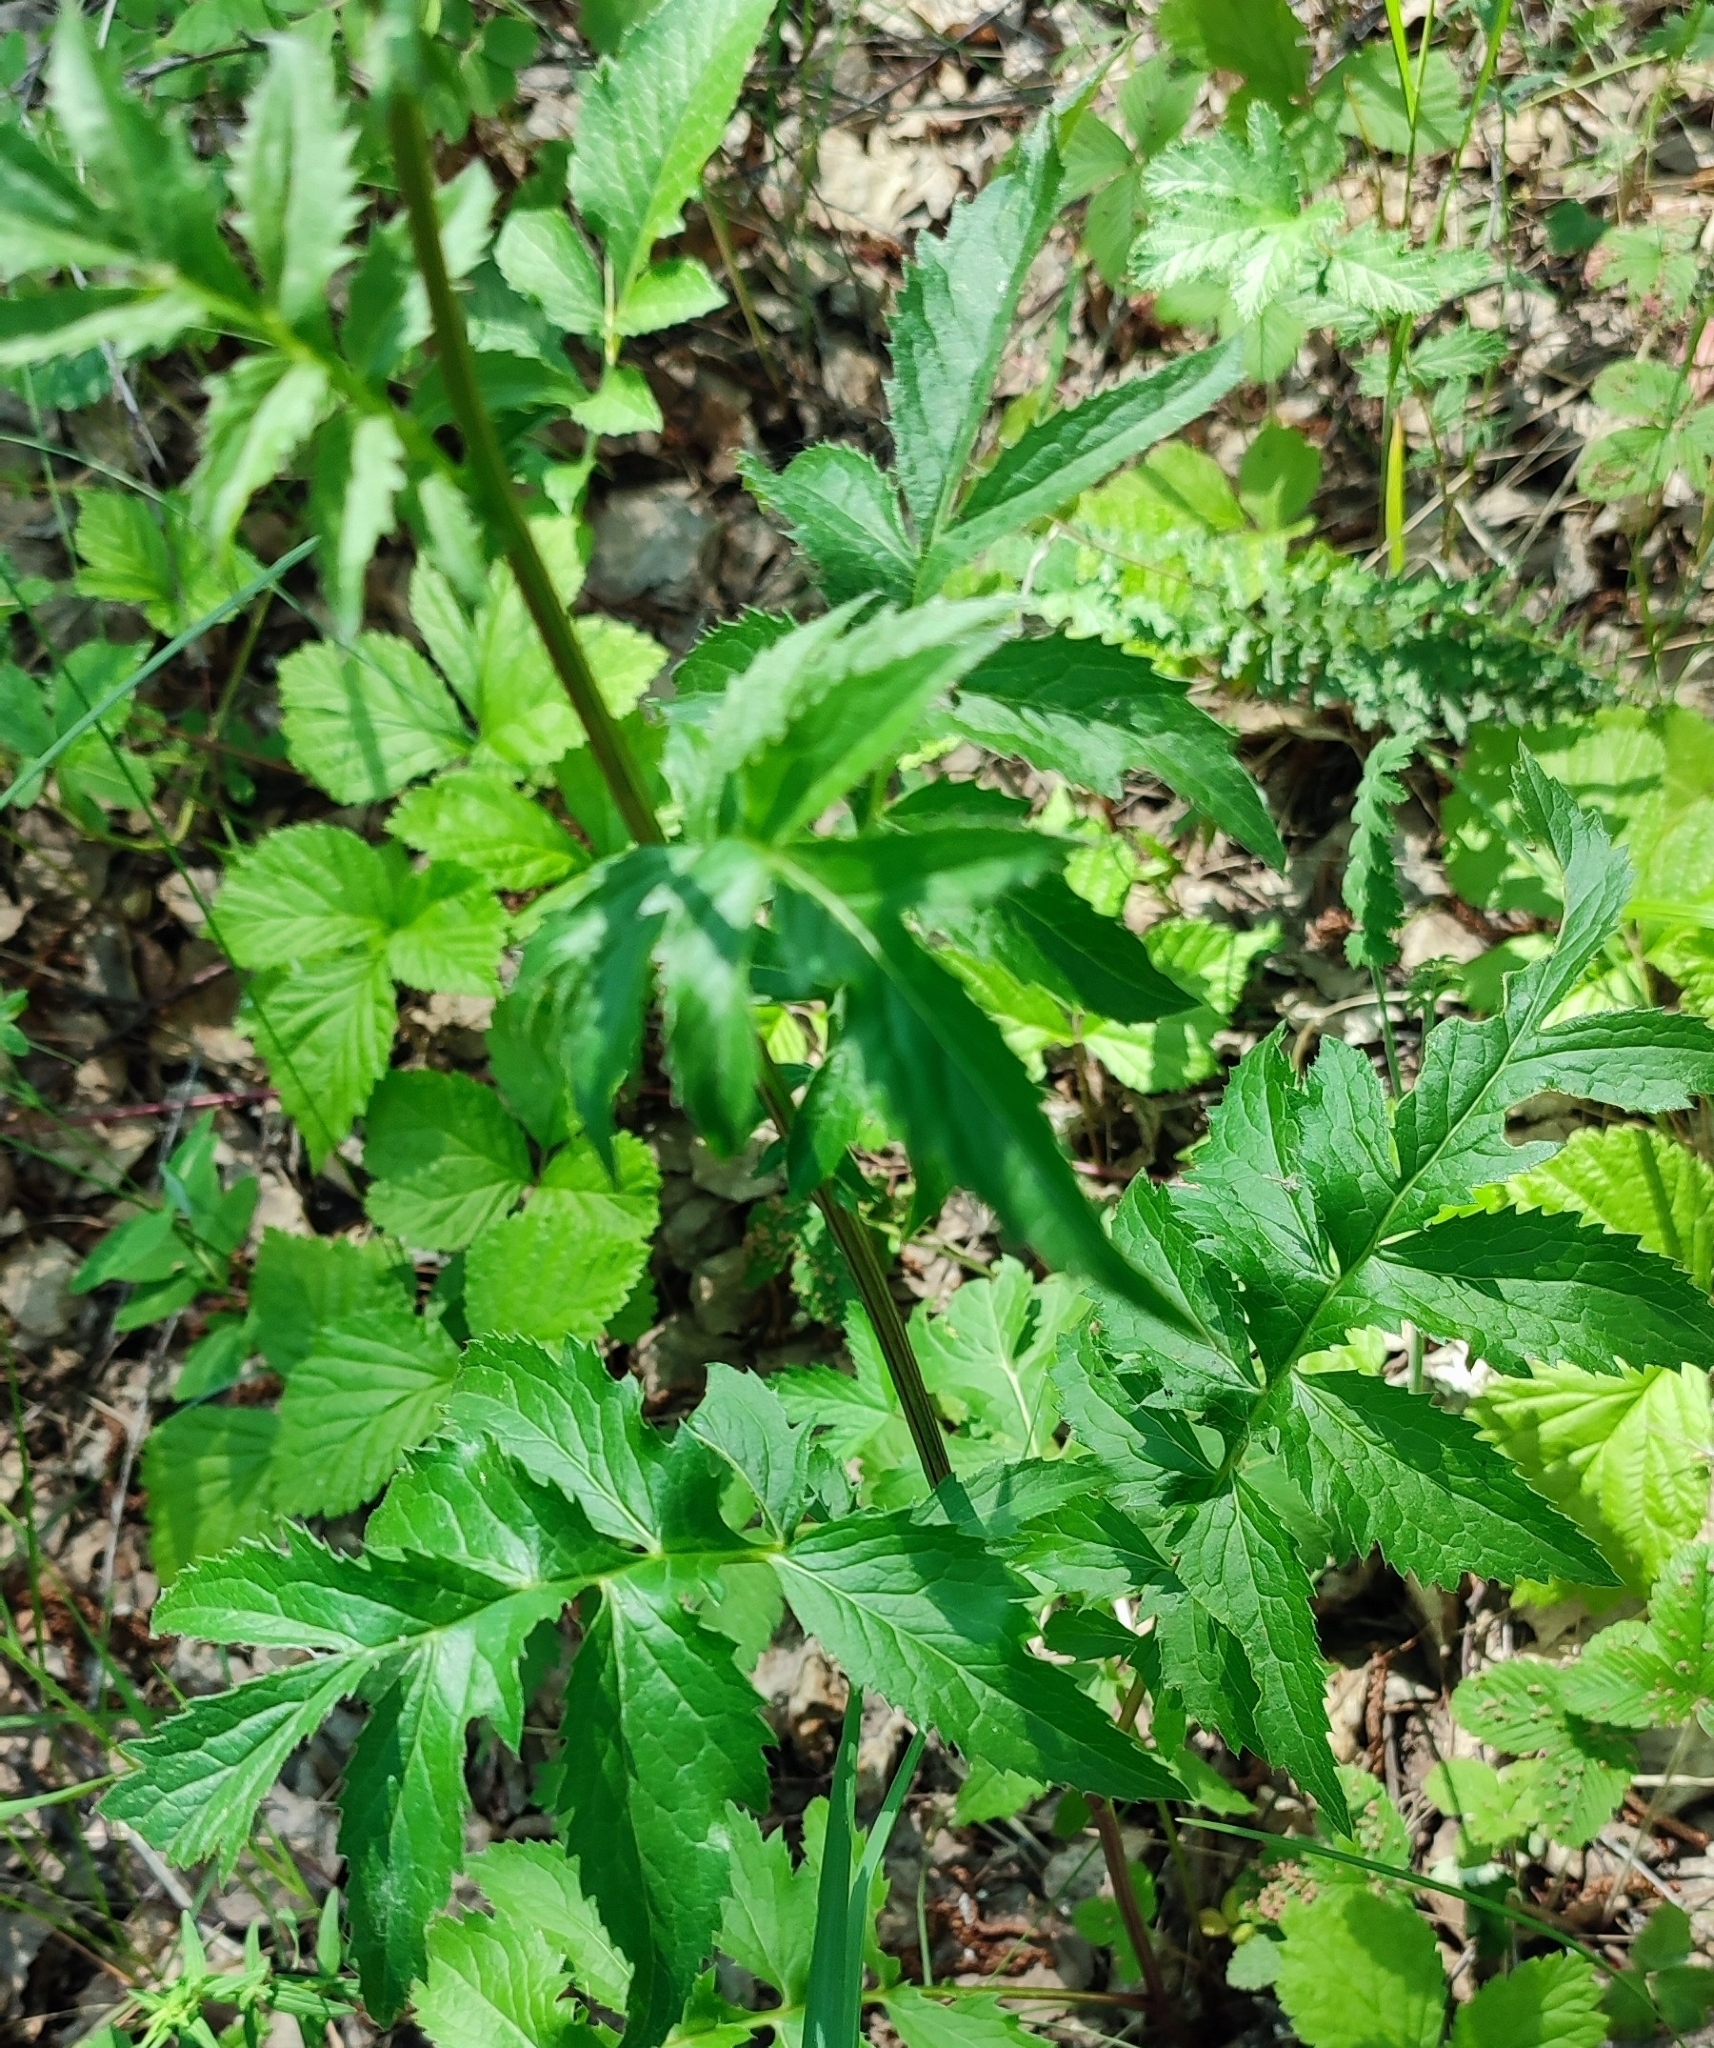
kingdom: Plantae
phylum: Tracheophyta
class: Magnoliopsida
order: Asterales
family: Asteraceae
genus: Serratula
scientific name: Serratula coronata
